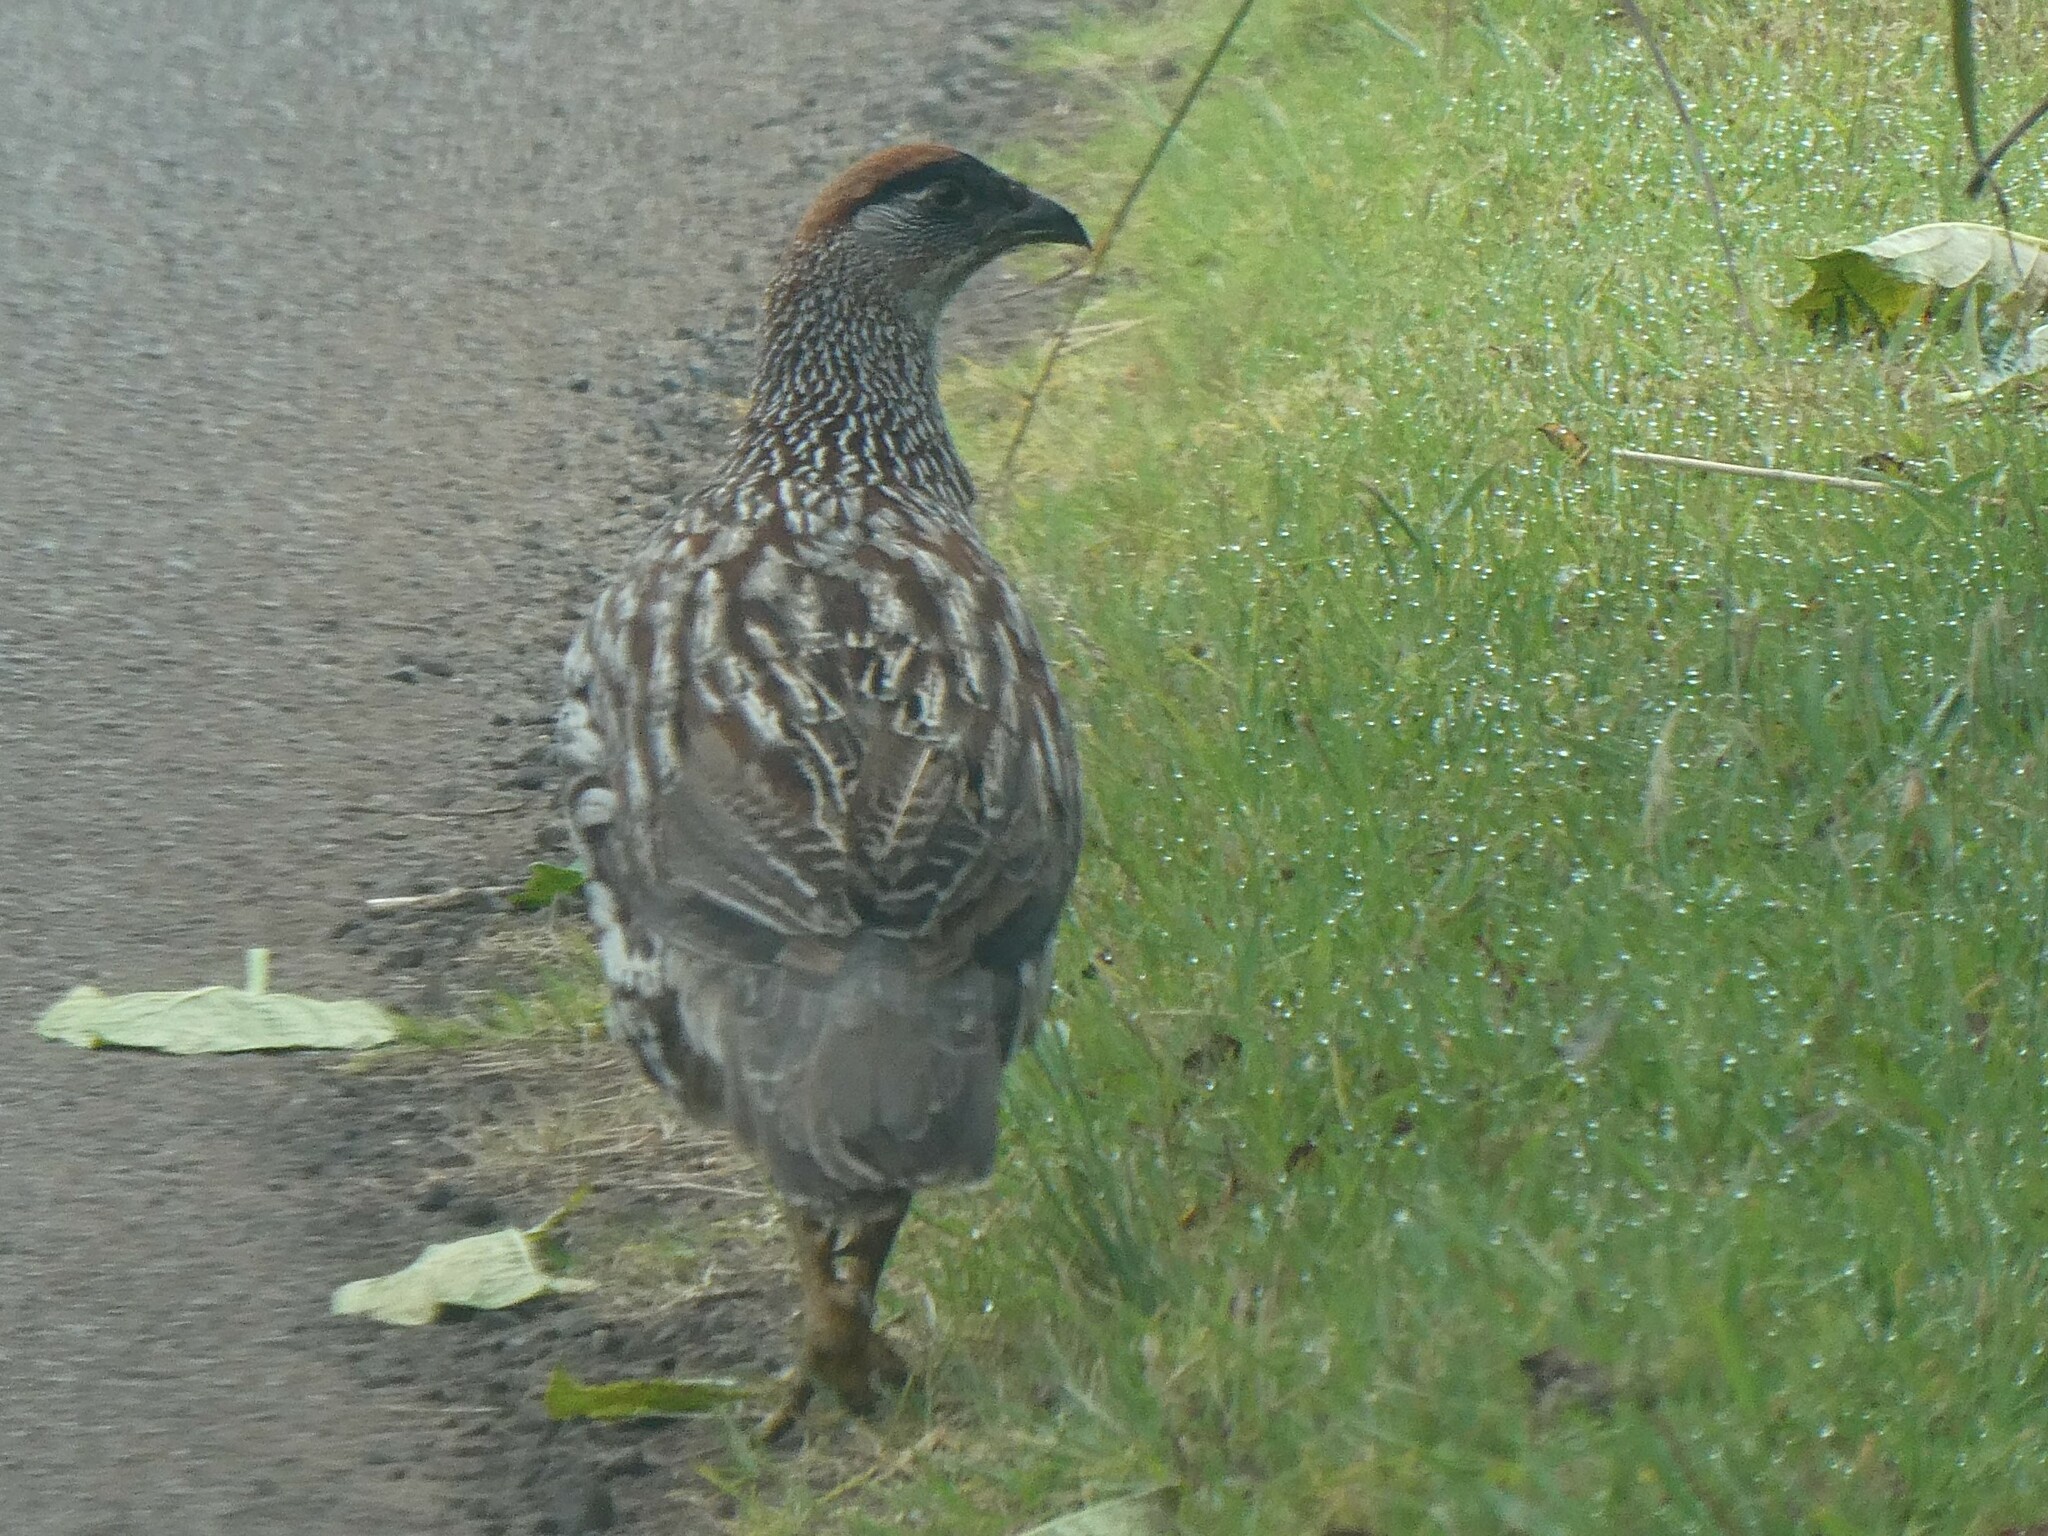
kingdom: Animalia
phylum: Chordata
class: Aves
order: Galliformes
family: Phasianidae
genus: Pternistis
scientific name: Pternistis erckelii
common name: Erckel's francolin
